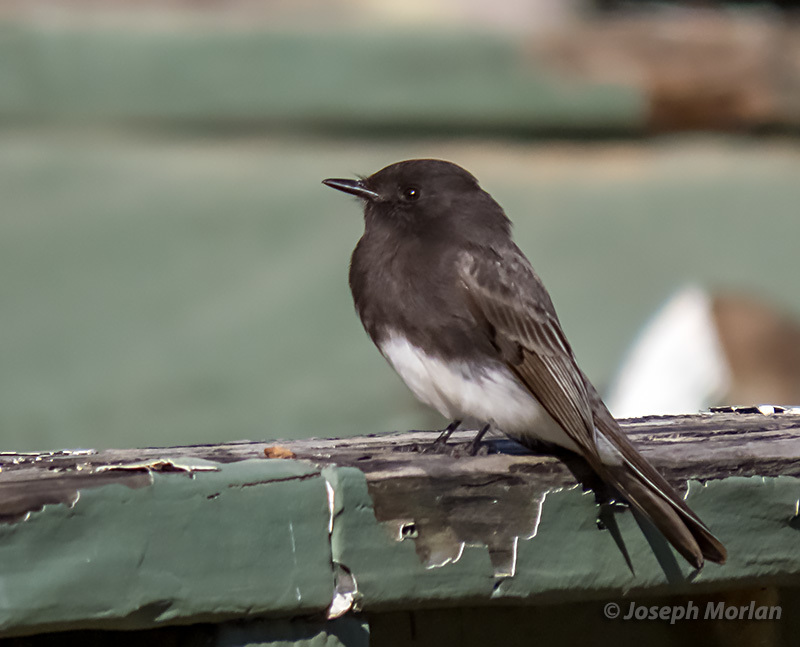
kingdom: Animalia
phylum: Chordata
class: Aves
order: Passeriformes
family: Tyrannidae
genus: Sayornis
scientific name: Sayornis nigricans
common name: Black phoebe
